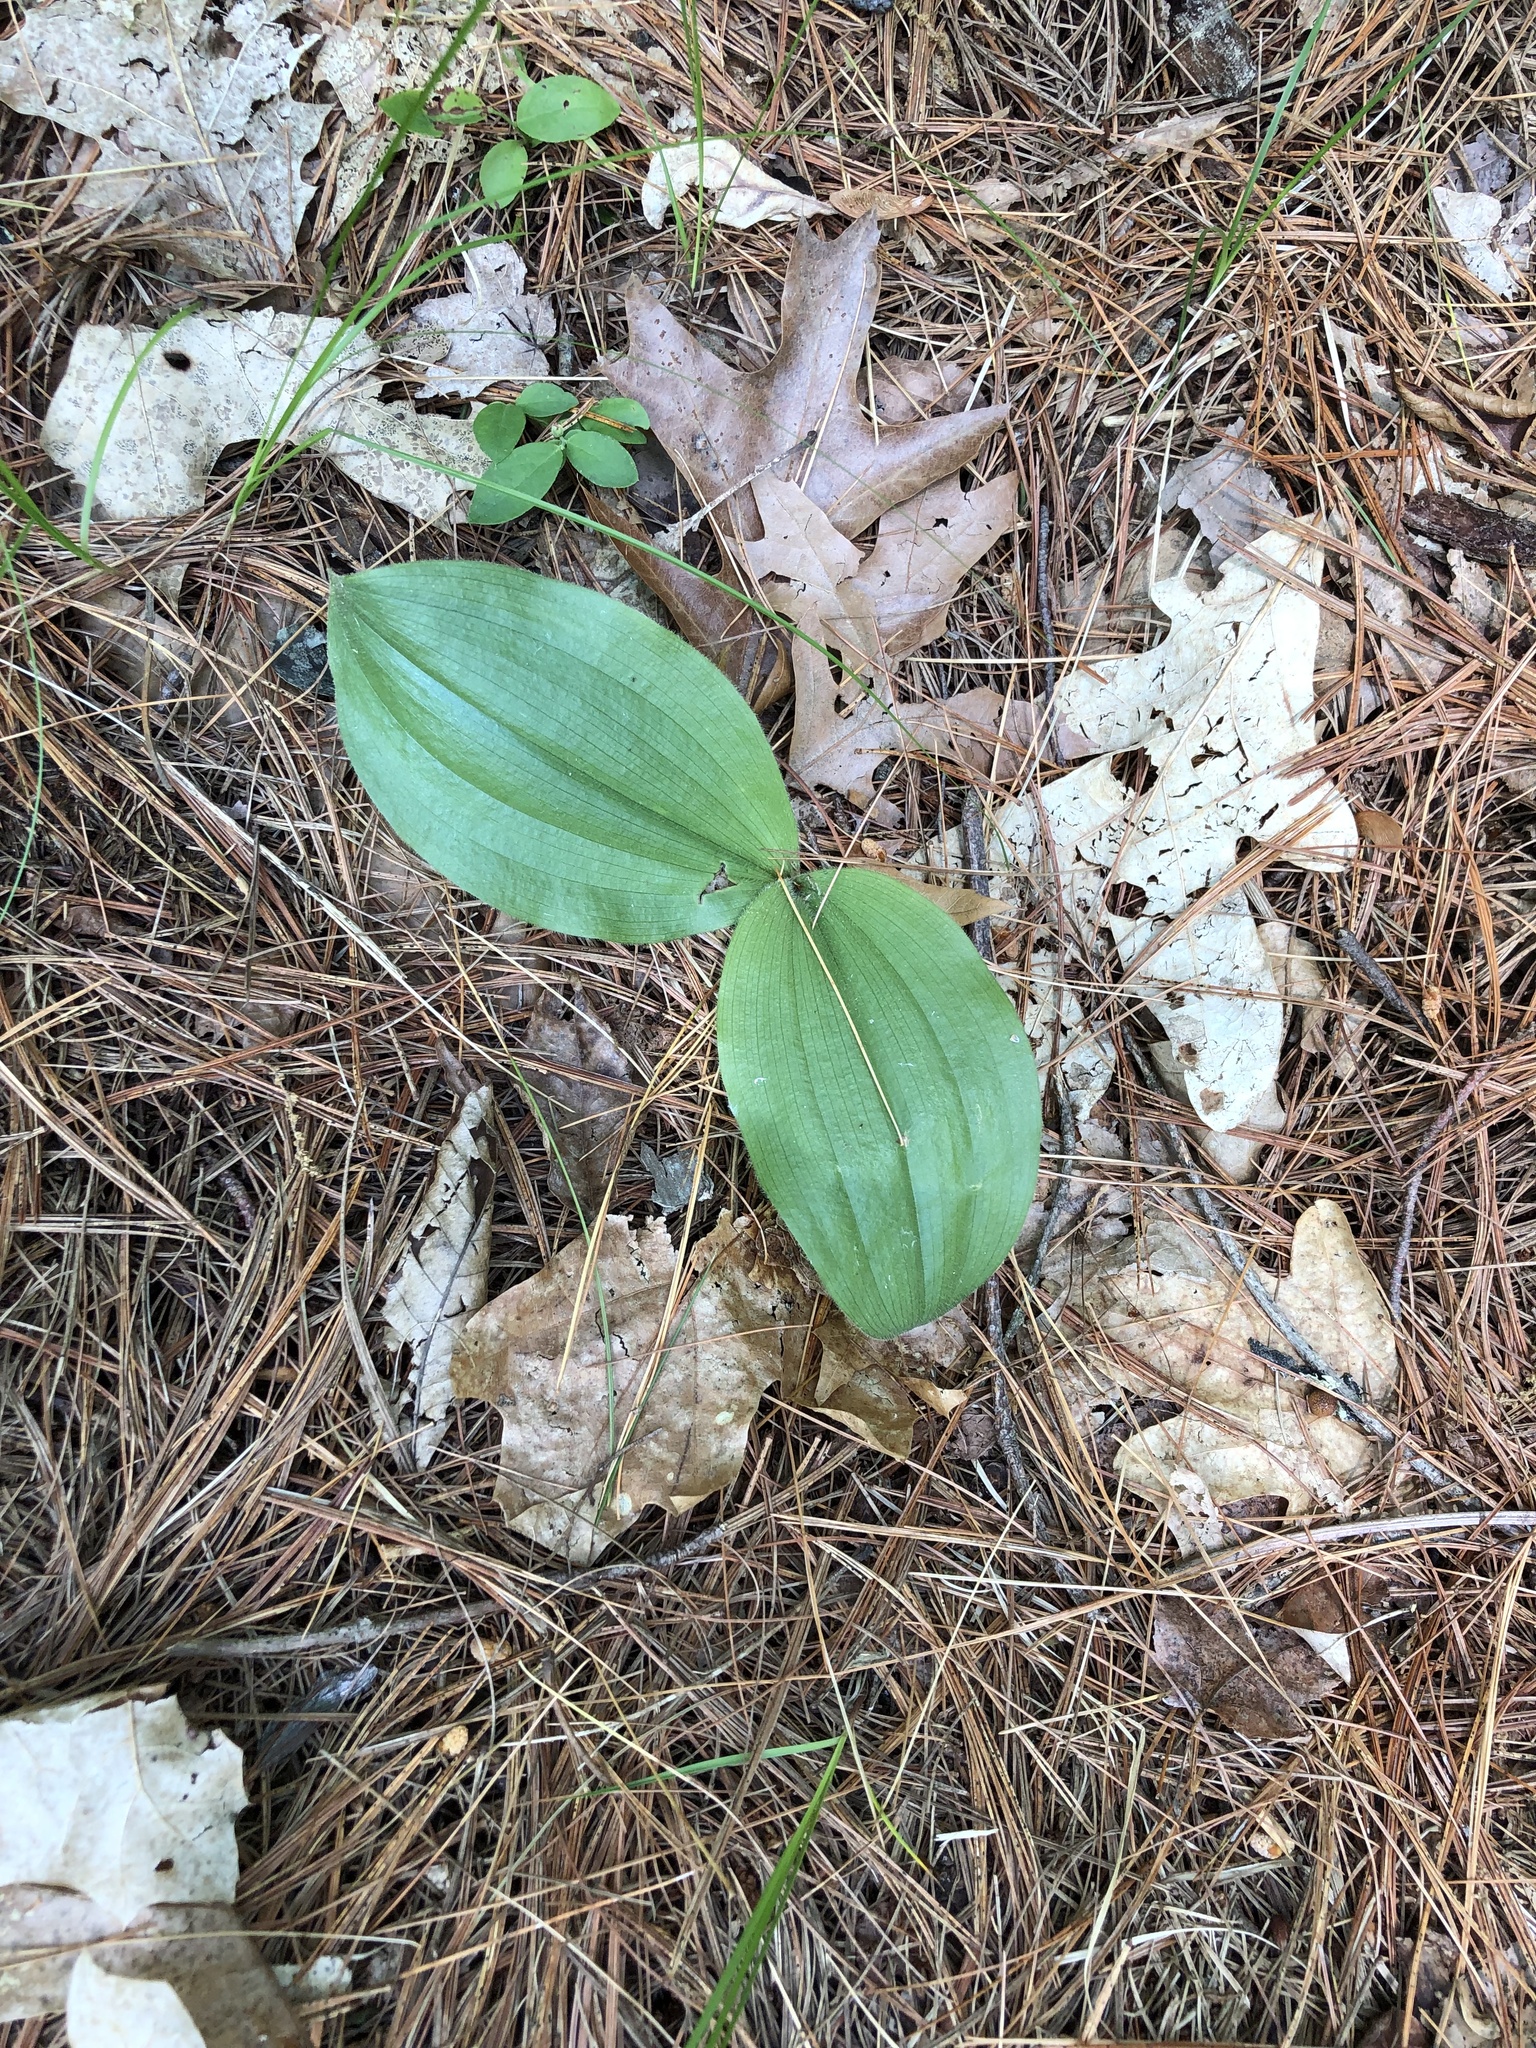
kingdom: Plantae
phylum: Tracheophyta
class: Liliopsida
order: Asparagales
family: Orchidaceae
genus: Cypripedium
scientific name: Cypripedium acaule
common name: Pink lady's-slipper
